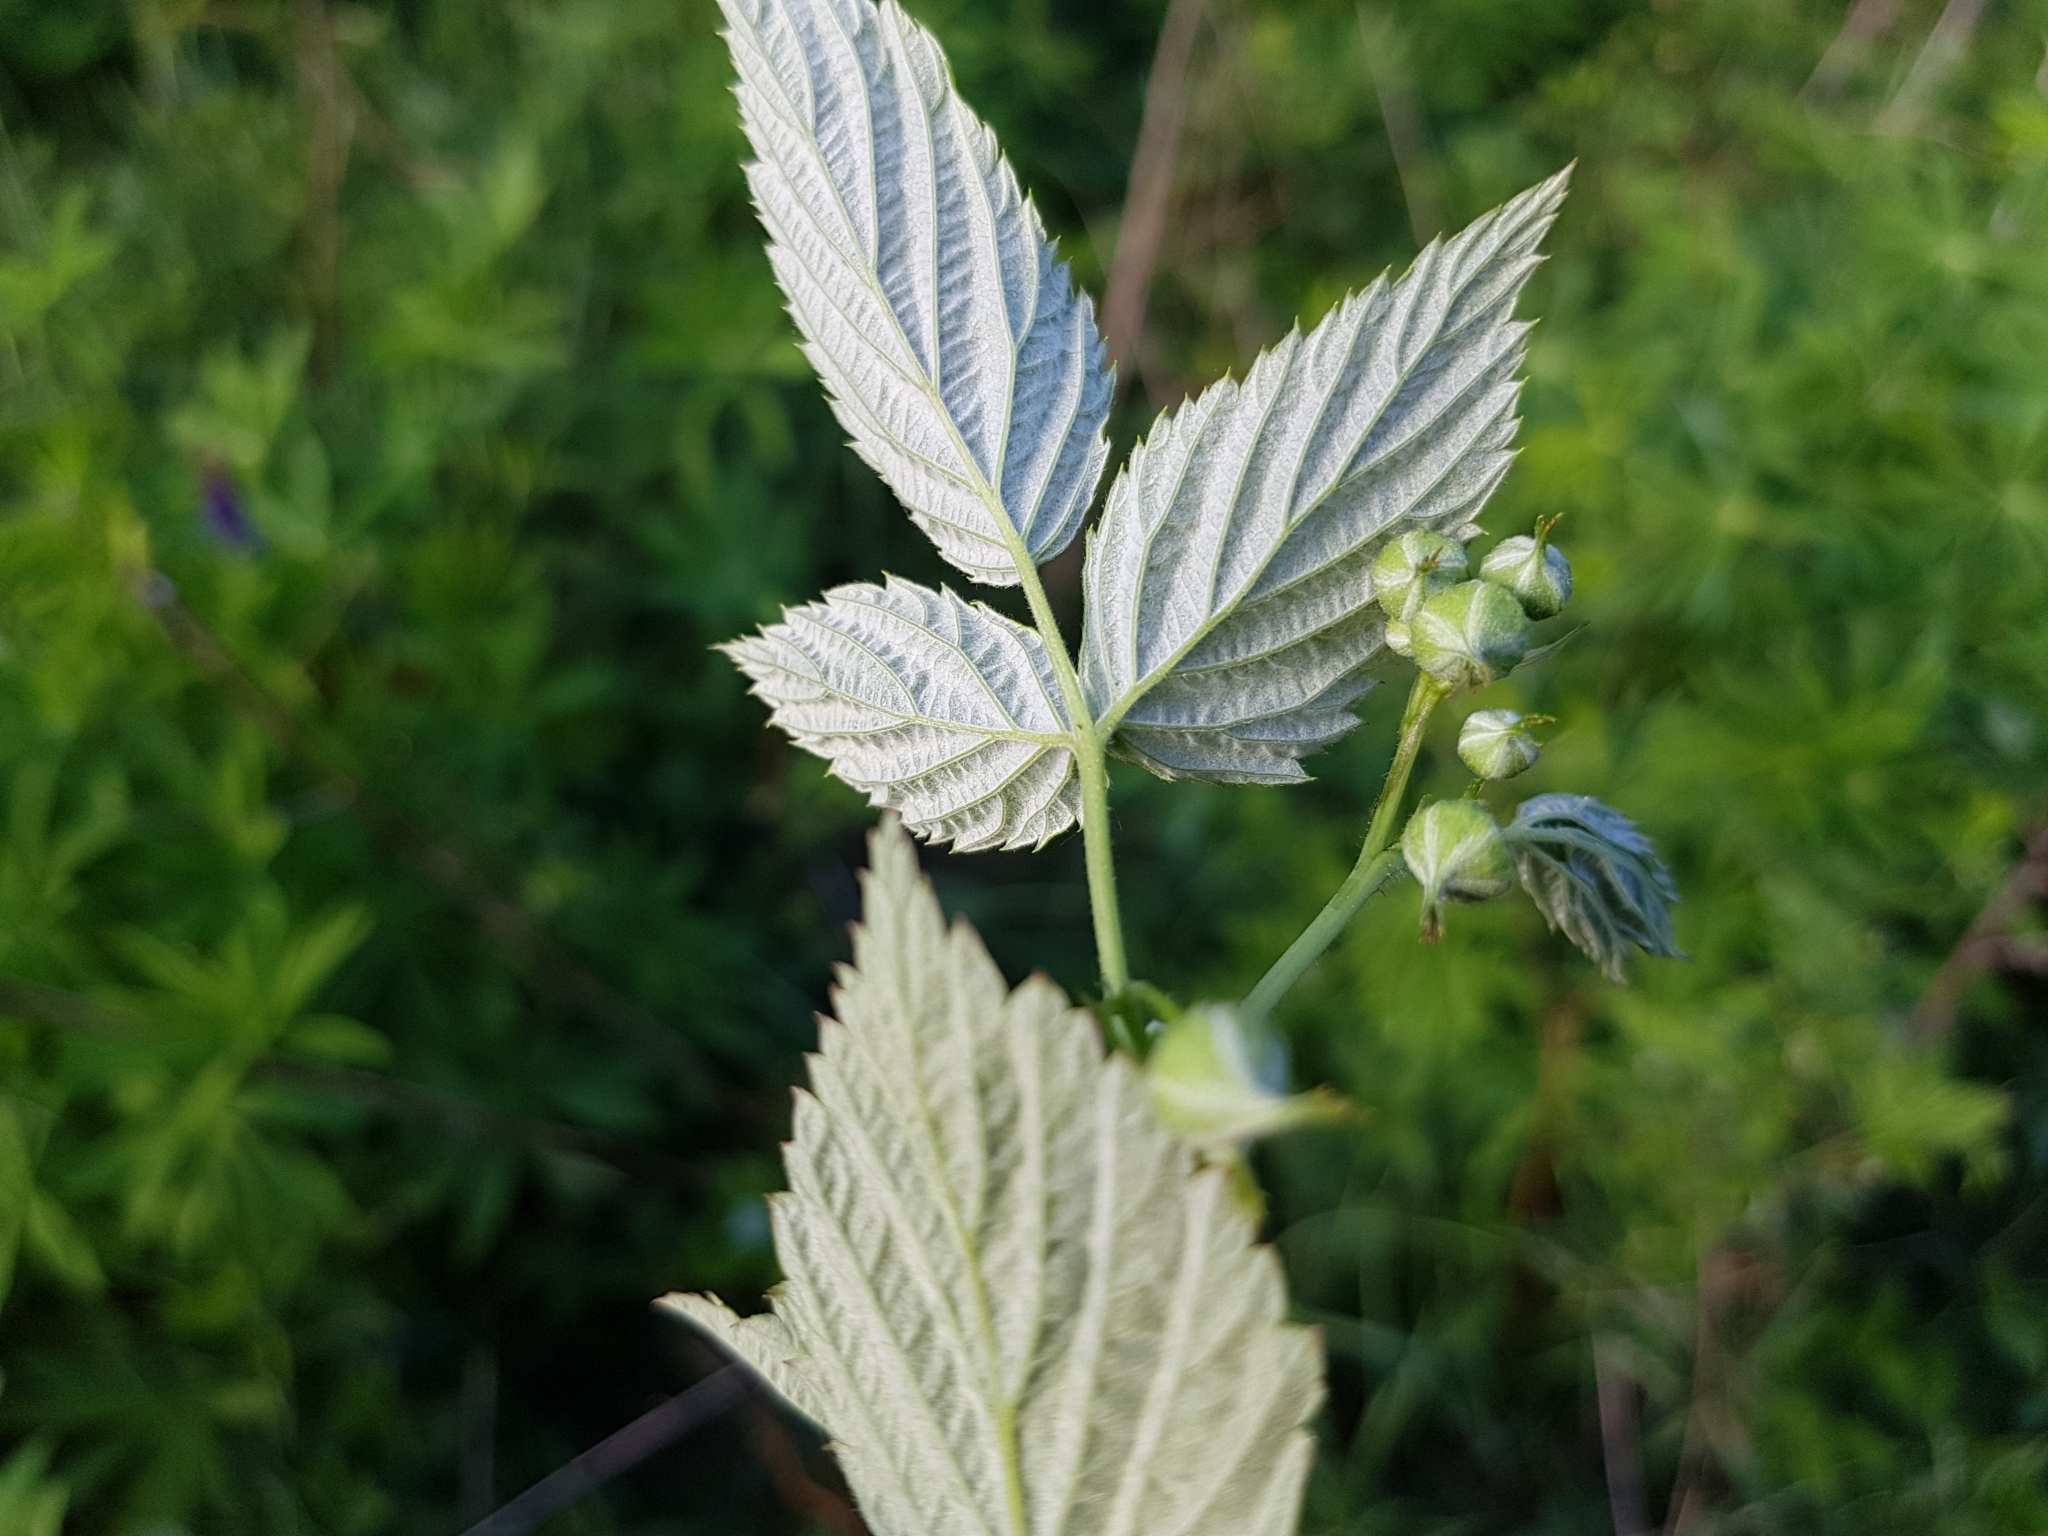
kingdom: Plantae
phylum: Tracheophyta
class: Magnoliopsida
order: Rosales
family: Rosaceae
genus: Rubus
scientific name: Rubus idaeus
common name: Raspberry
